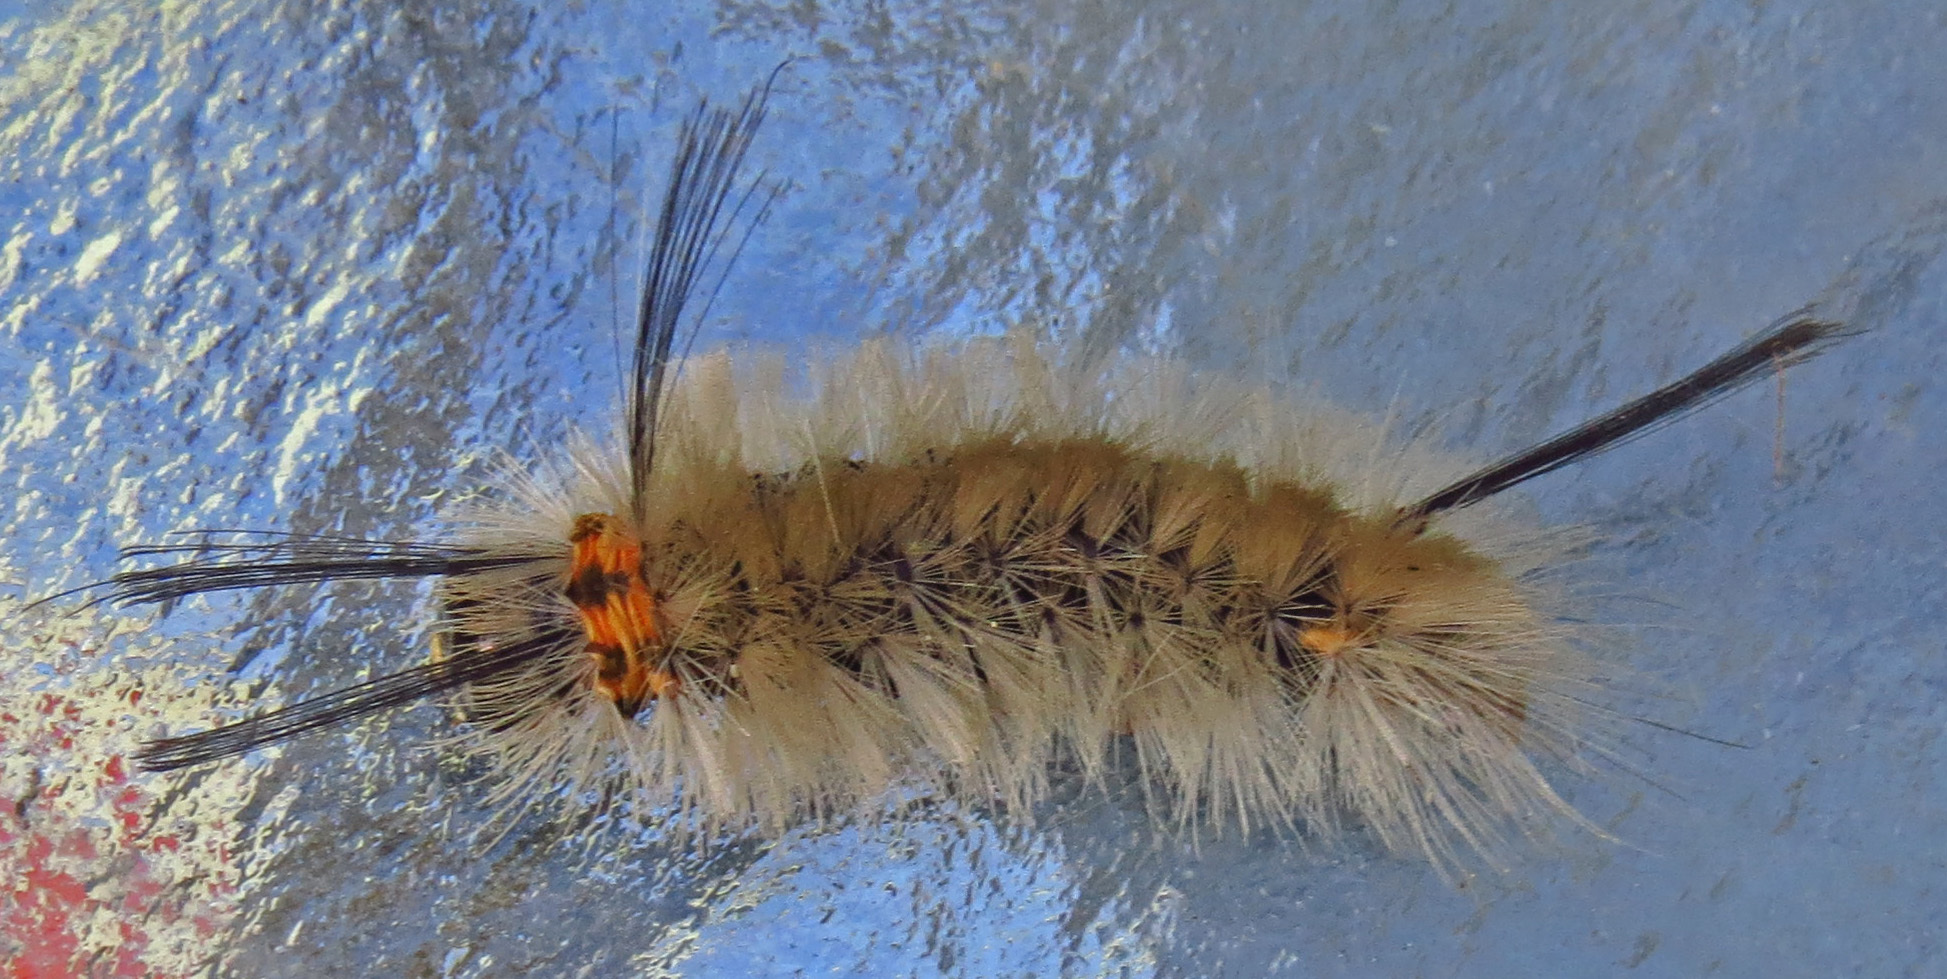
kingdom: Animalia
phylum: Arthropoda
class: Insecta
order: Lepidoptera
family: Erebidae
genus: Halysidota
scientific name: Halysidota tessellaris
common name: Banded tussock moth
